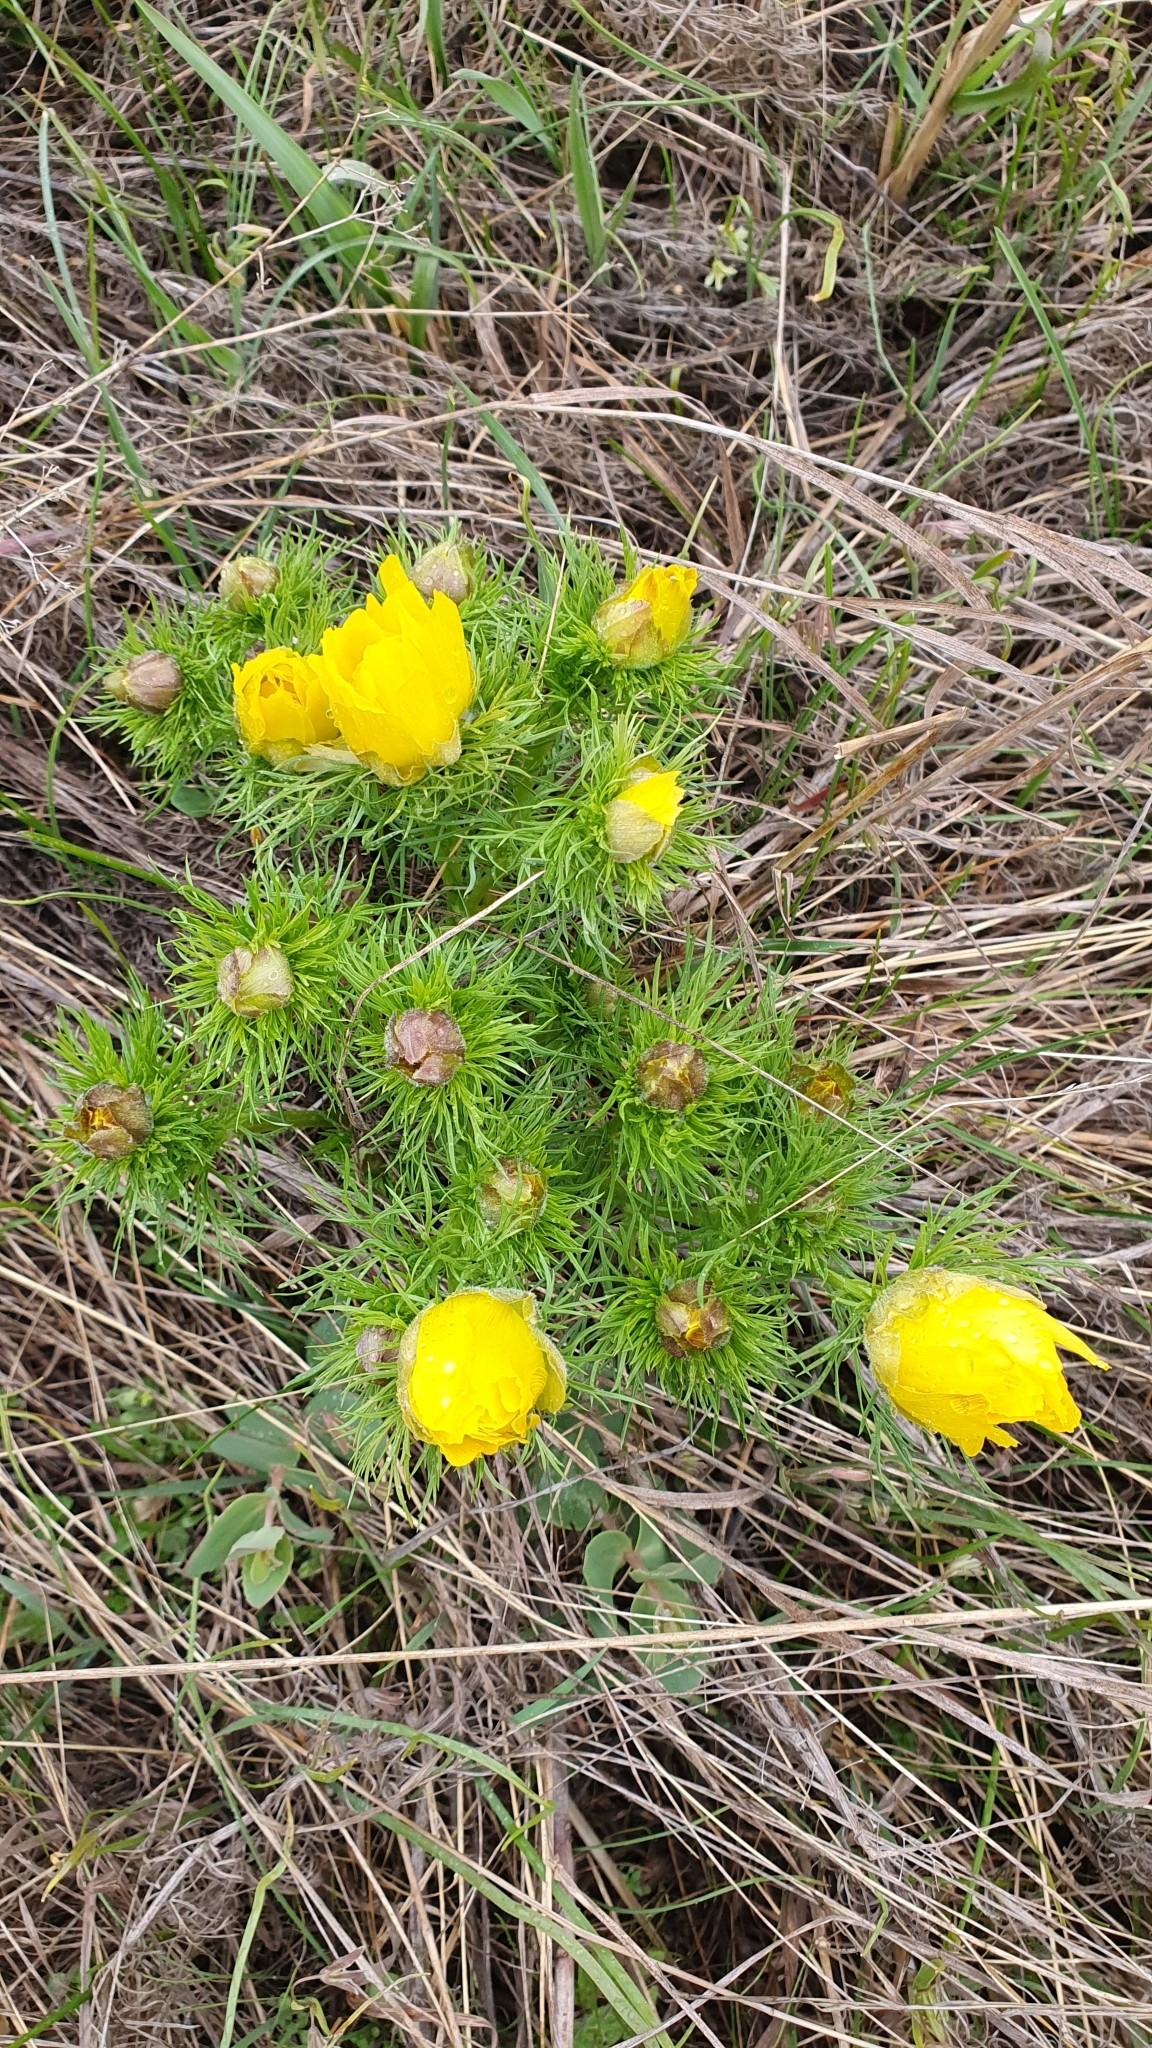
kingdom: Plantae
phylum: Tracheophyta
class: Magnoliopsida
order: Ranunculales
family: Ranunculaceae
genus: Adonis
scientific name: Adonis vernalis
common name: Yellow pheasants-eye
